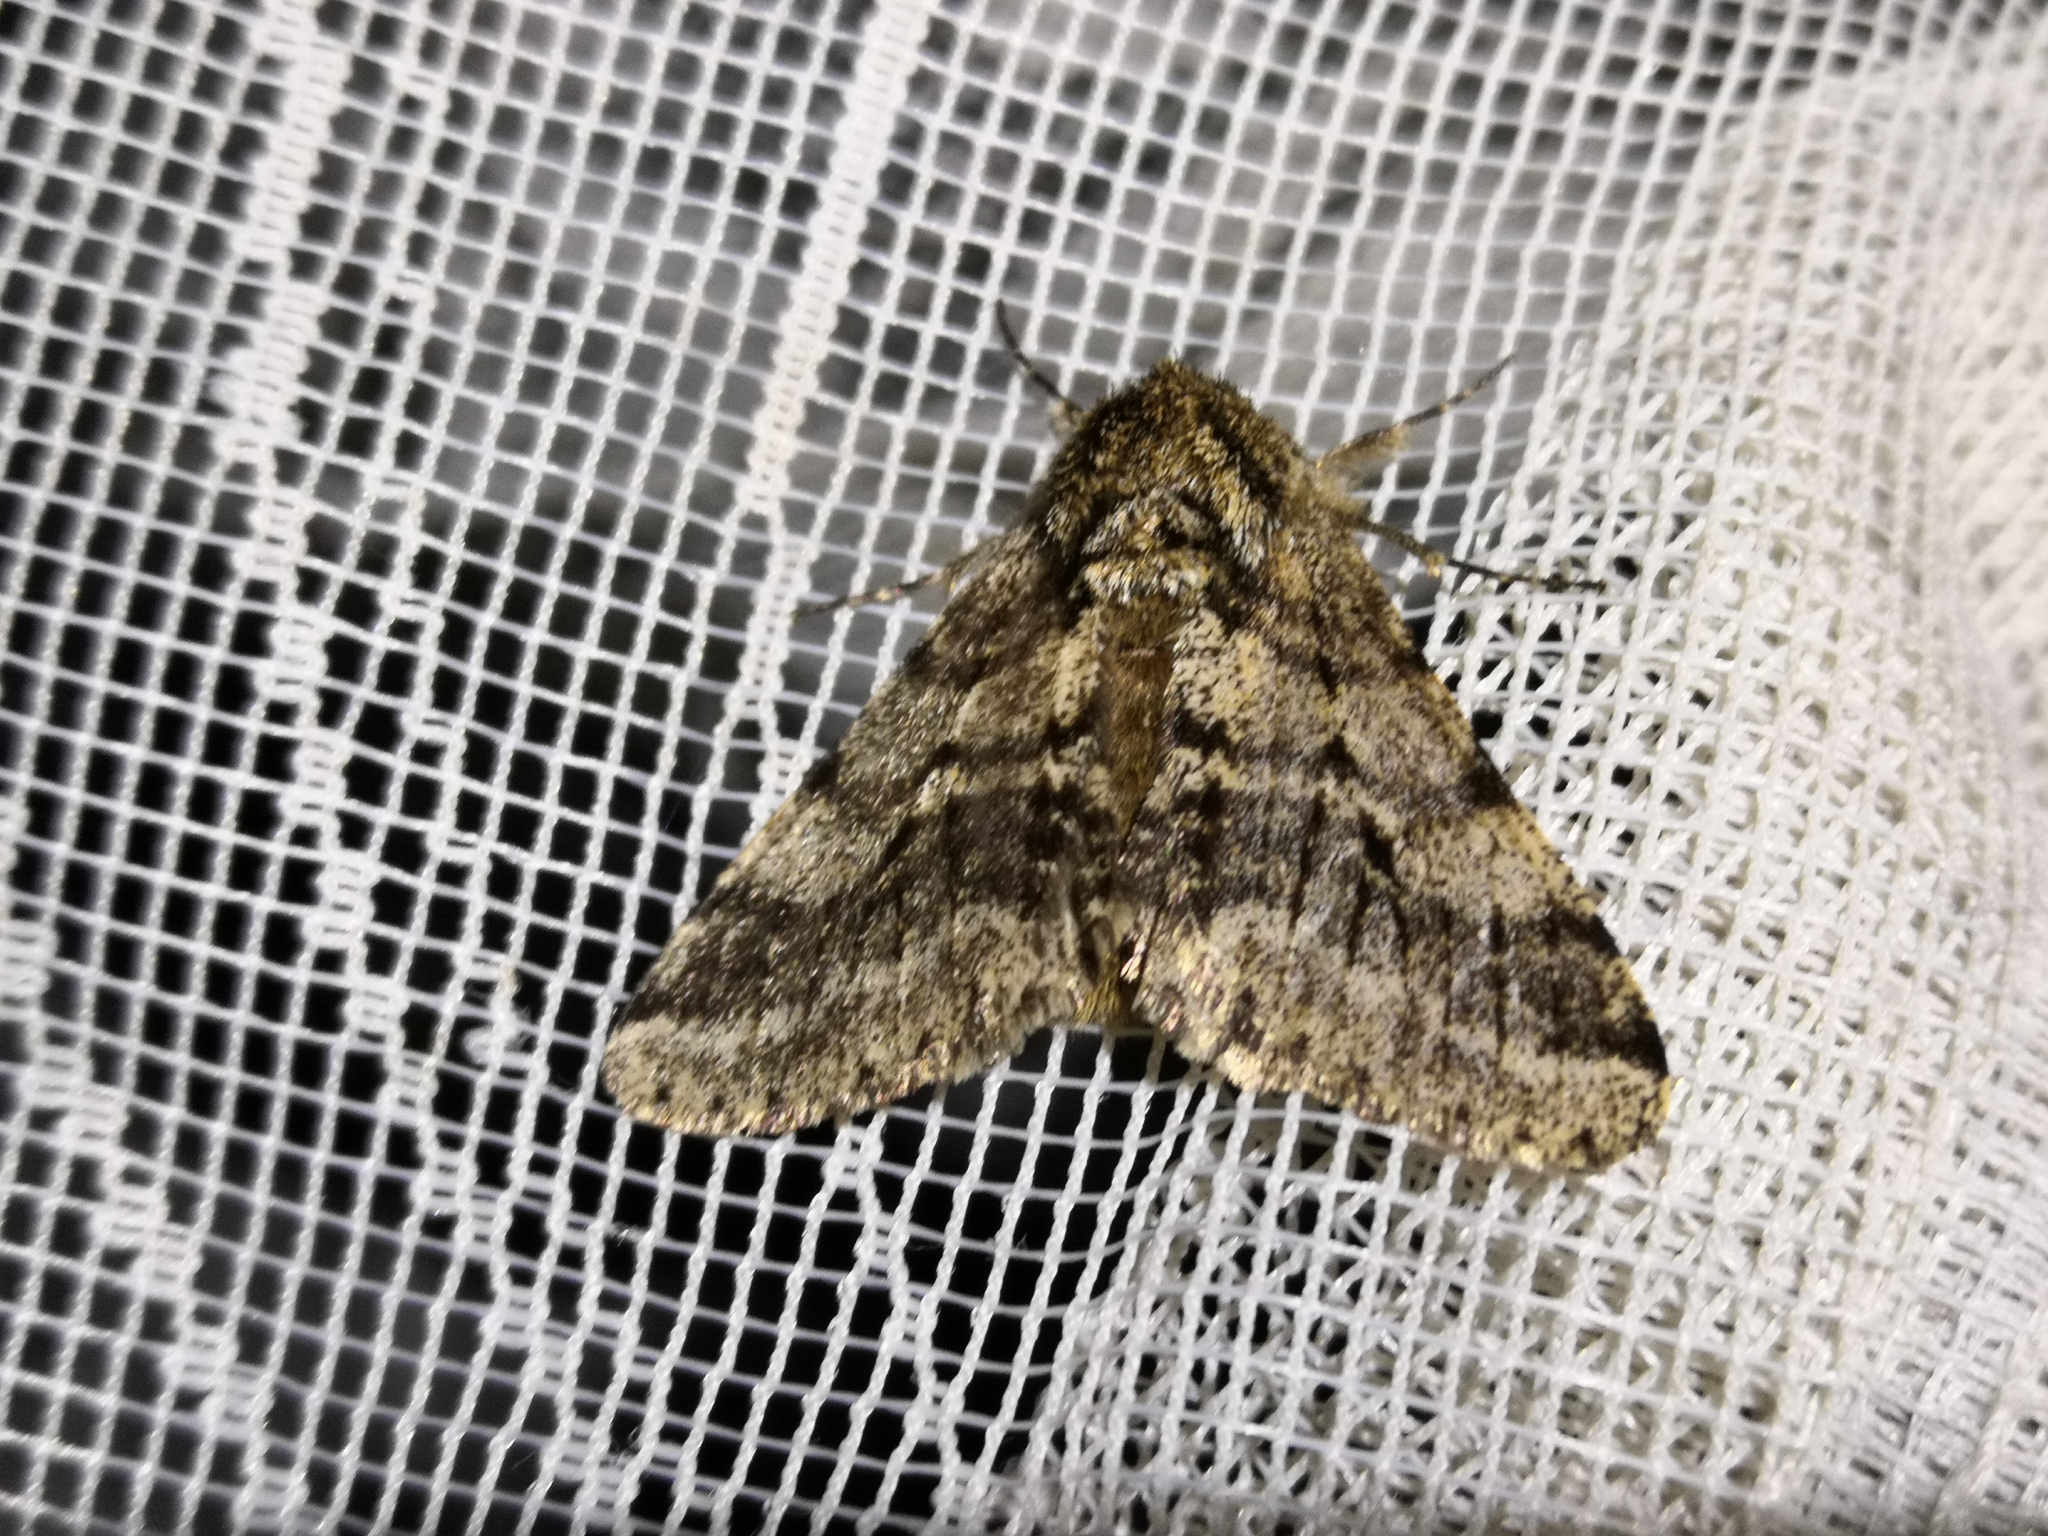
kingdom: Animalia
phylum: Arthropoda
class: Insecta
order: Lepidoptera
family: Geometridae
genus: Lycia
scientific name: Lycia hirtaria
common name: Brindled beauty
